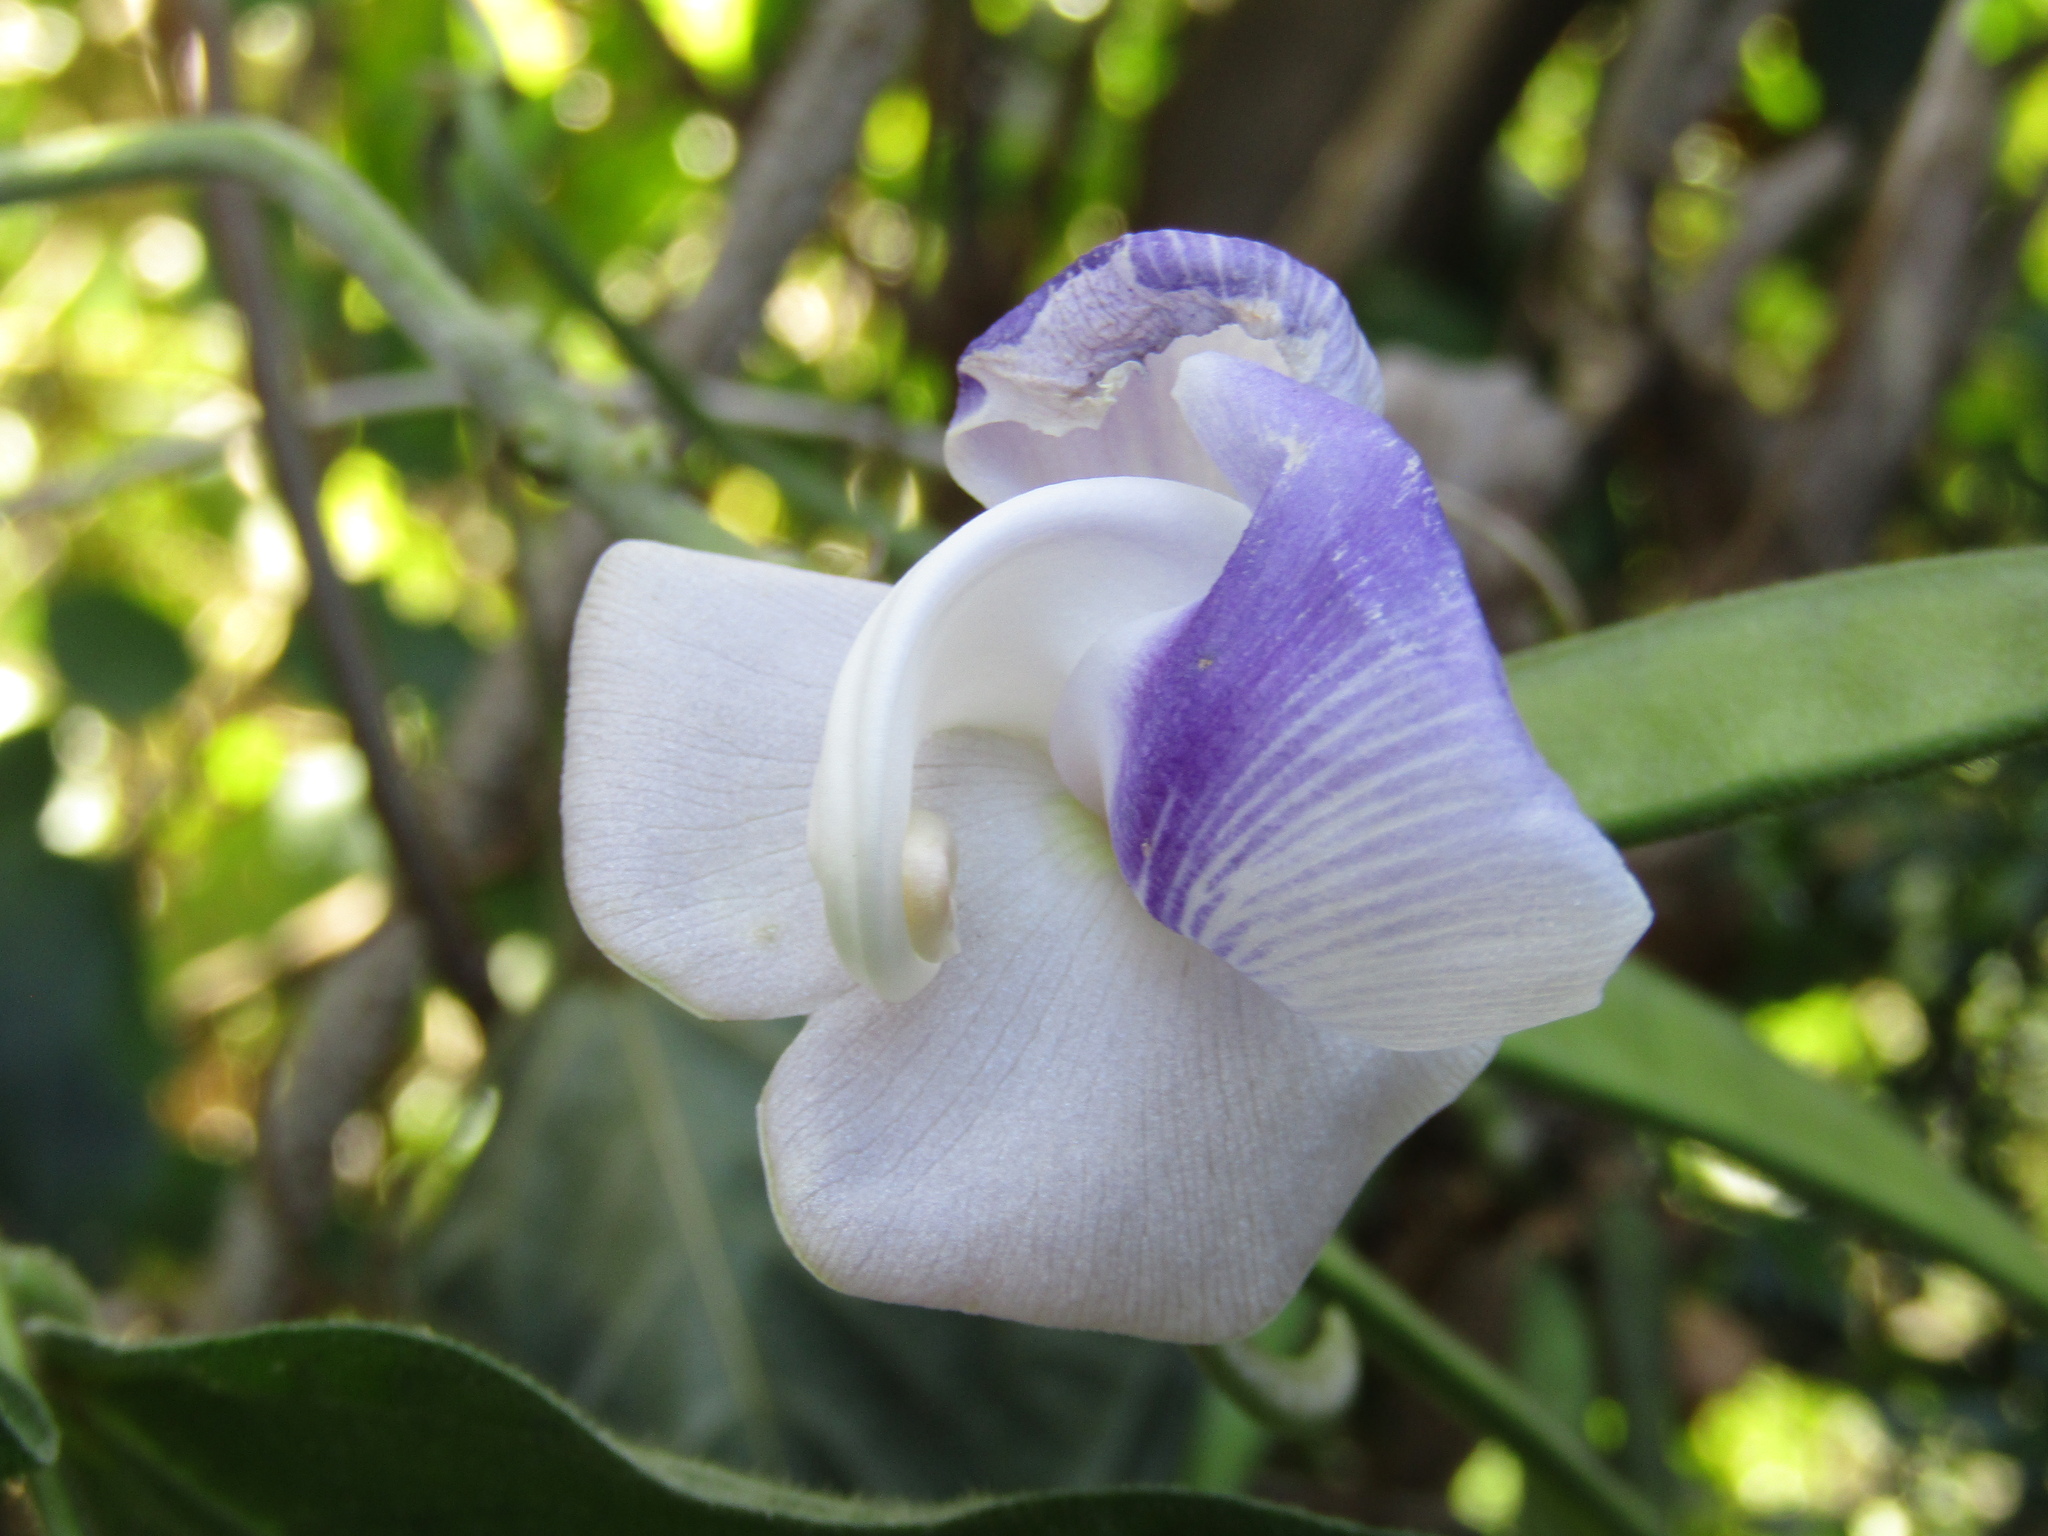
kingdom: Plantae
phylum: Tracheophyta
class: Magnoliopsida
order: Fabales
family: Fabaceae
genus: Leptospron
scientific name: Leptospron adenanthum
